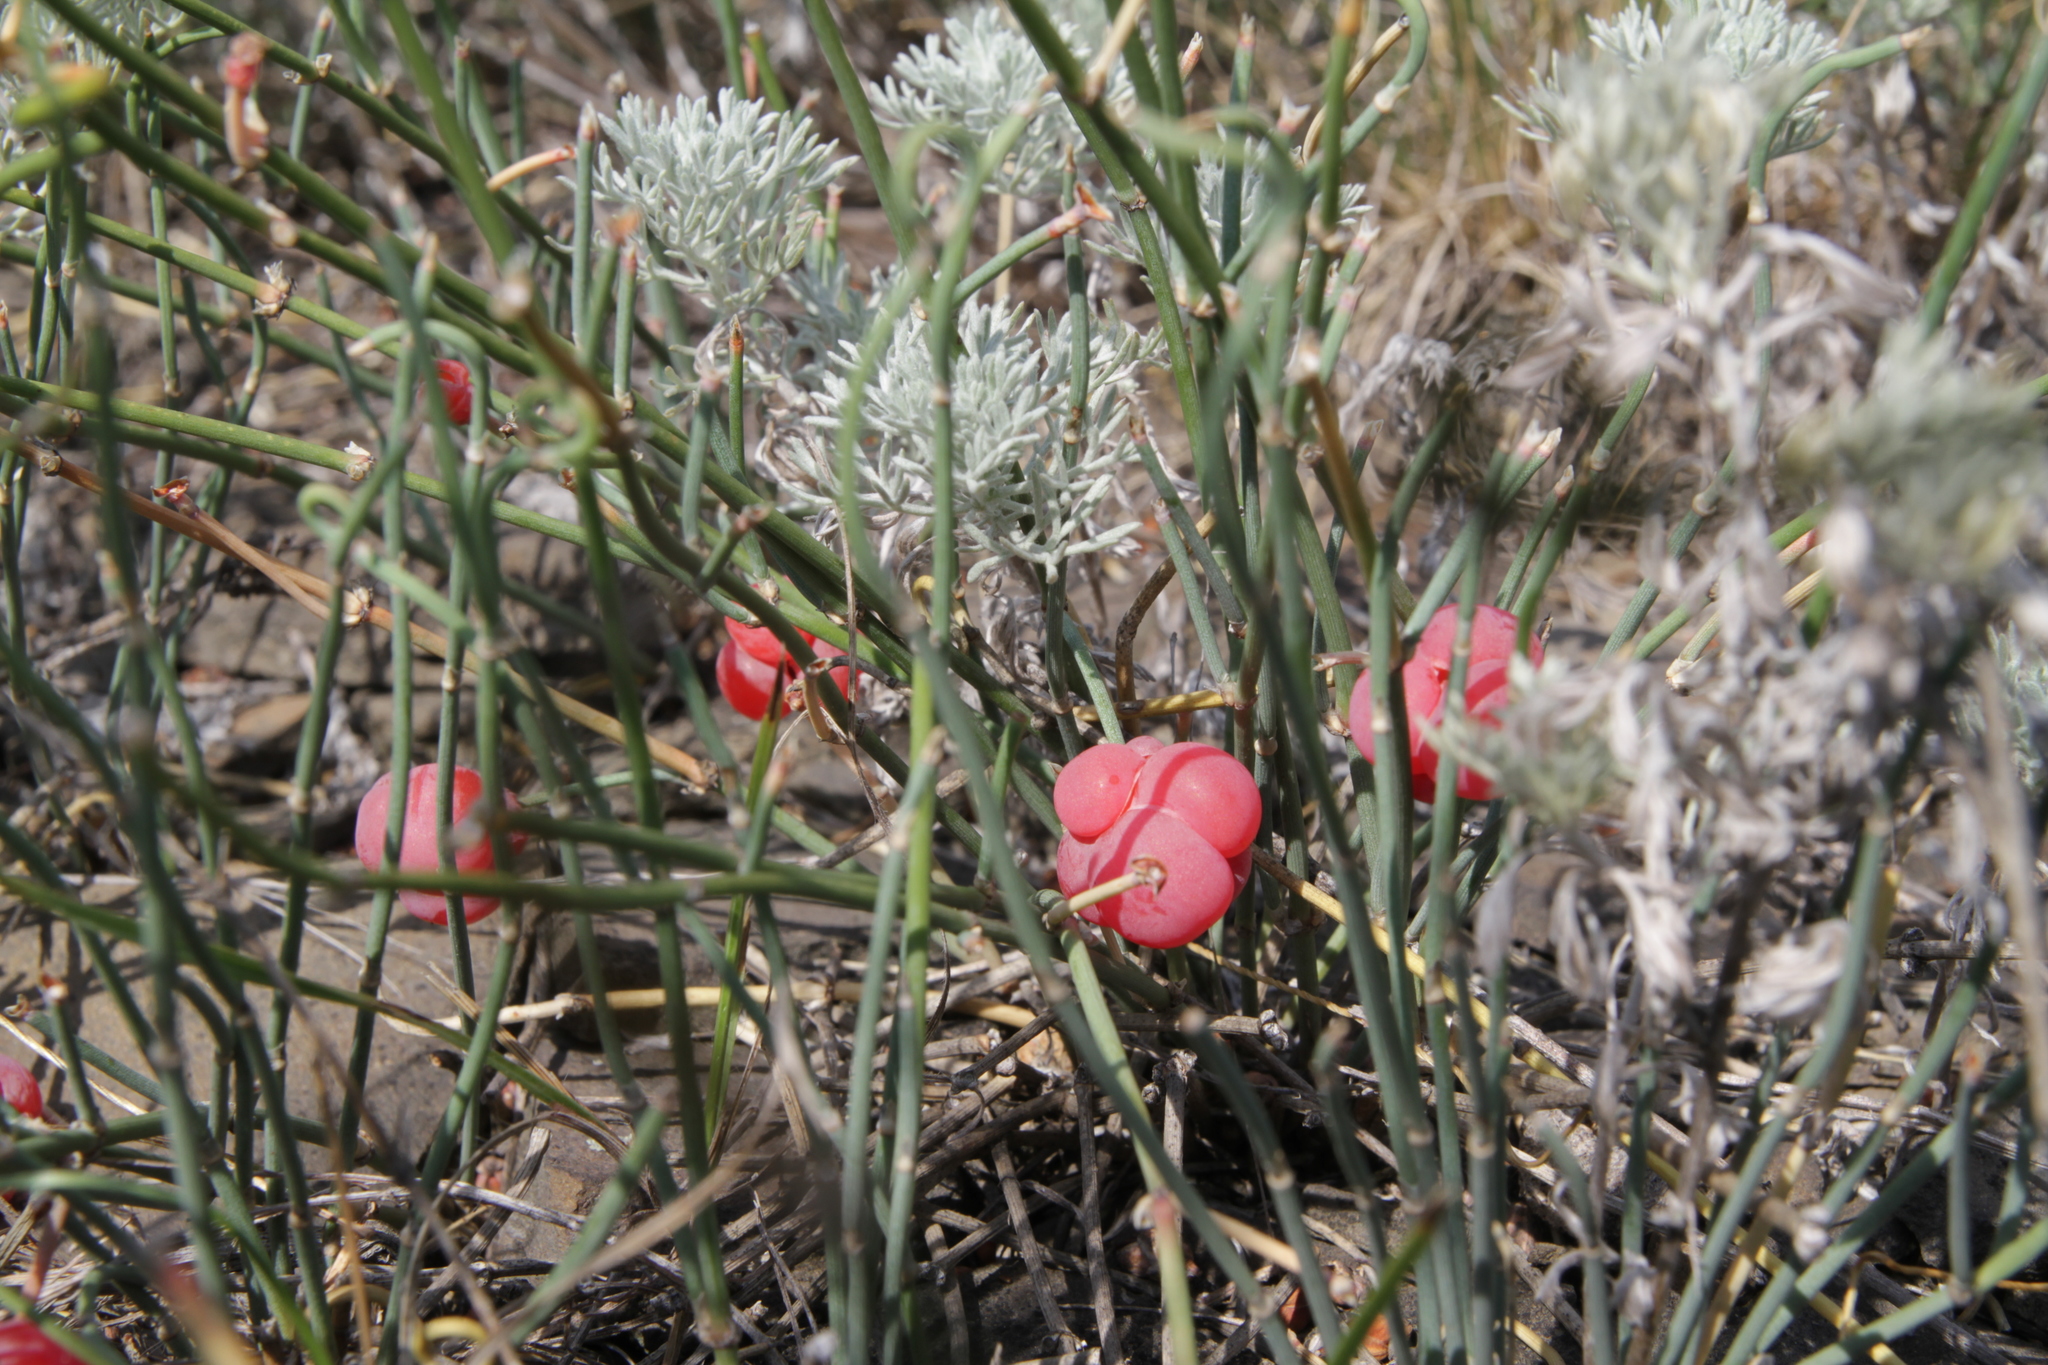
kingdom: Plantae
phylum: Tracheophyta
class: Gnetopsida
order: Ephedrales
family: Ephedraceae
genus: Ephedra
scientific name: Ephedra distachya
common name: Sea grape
